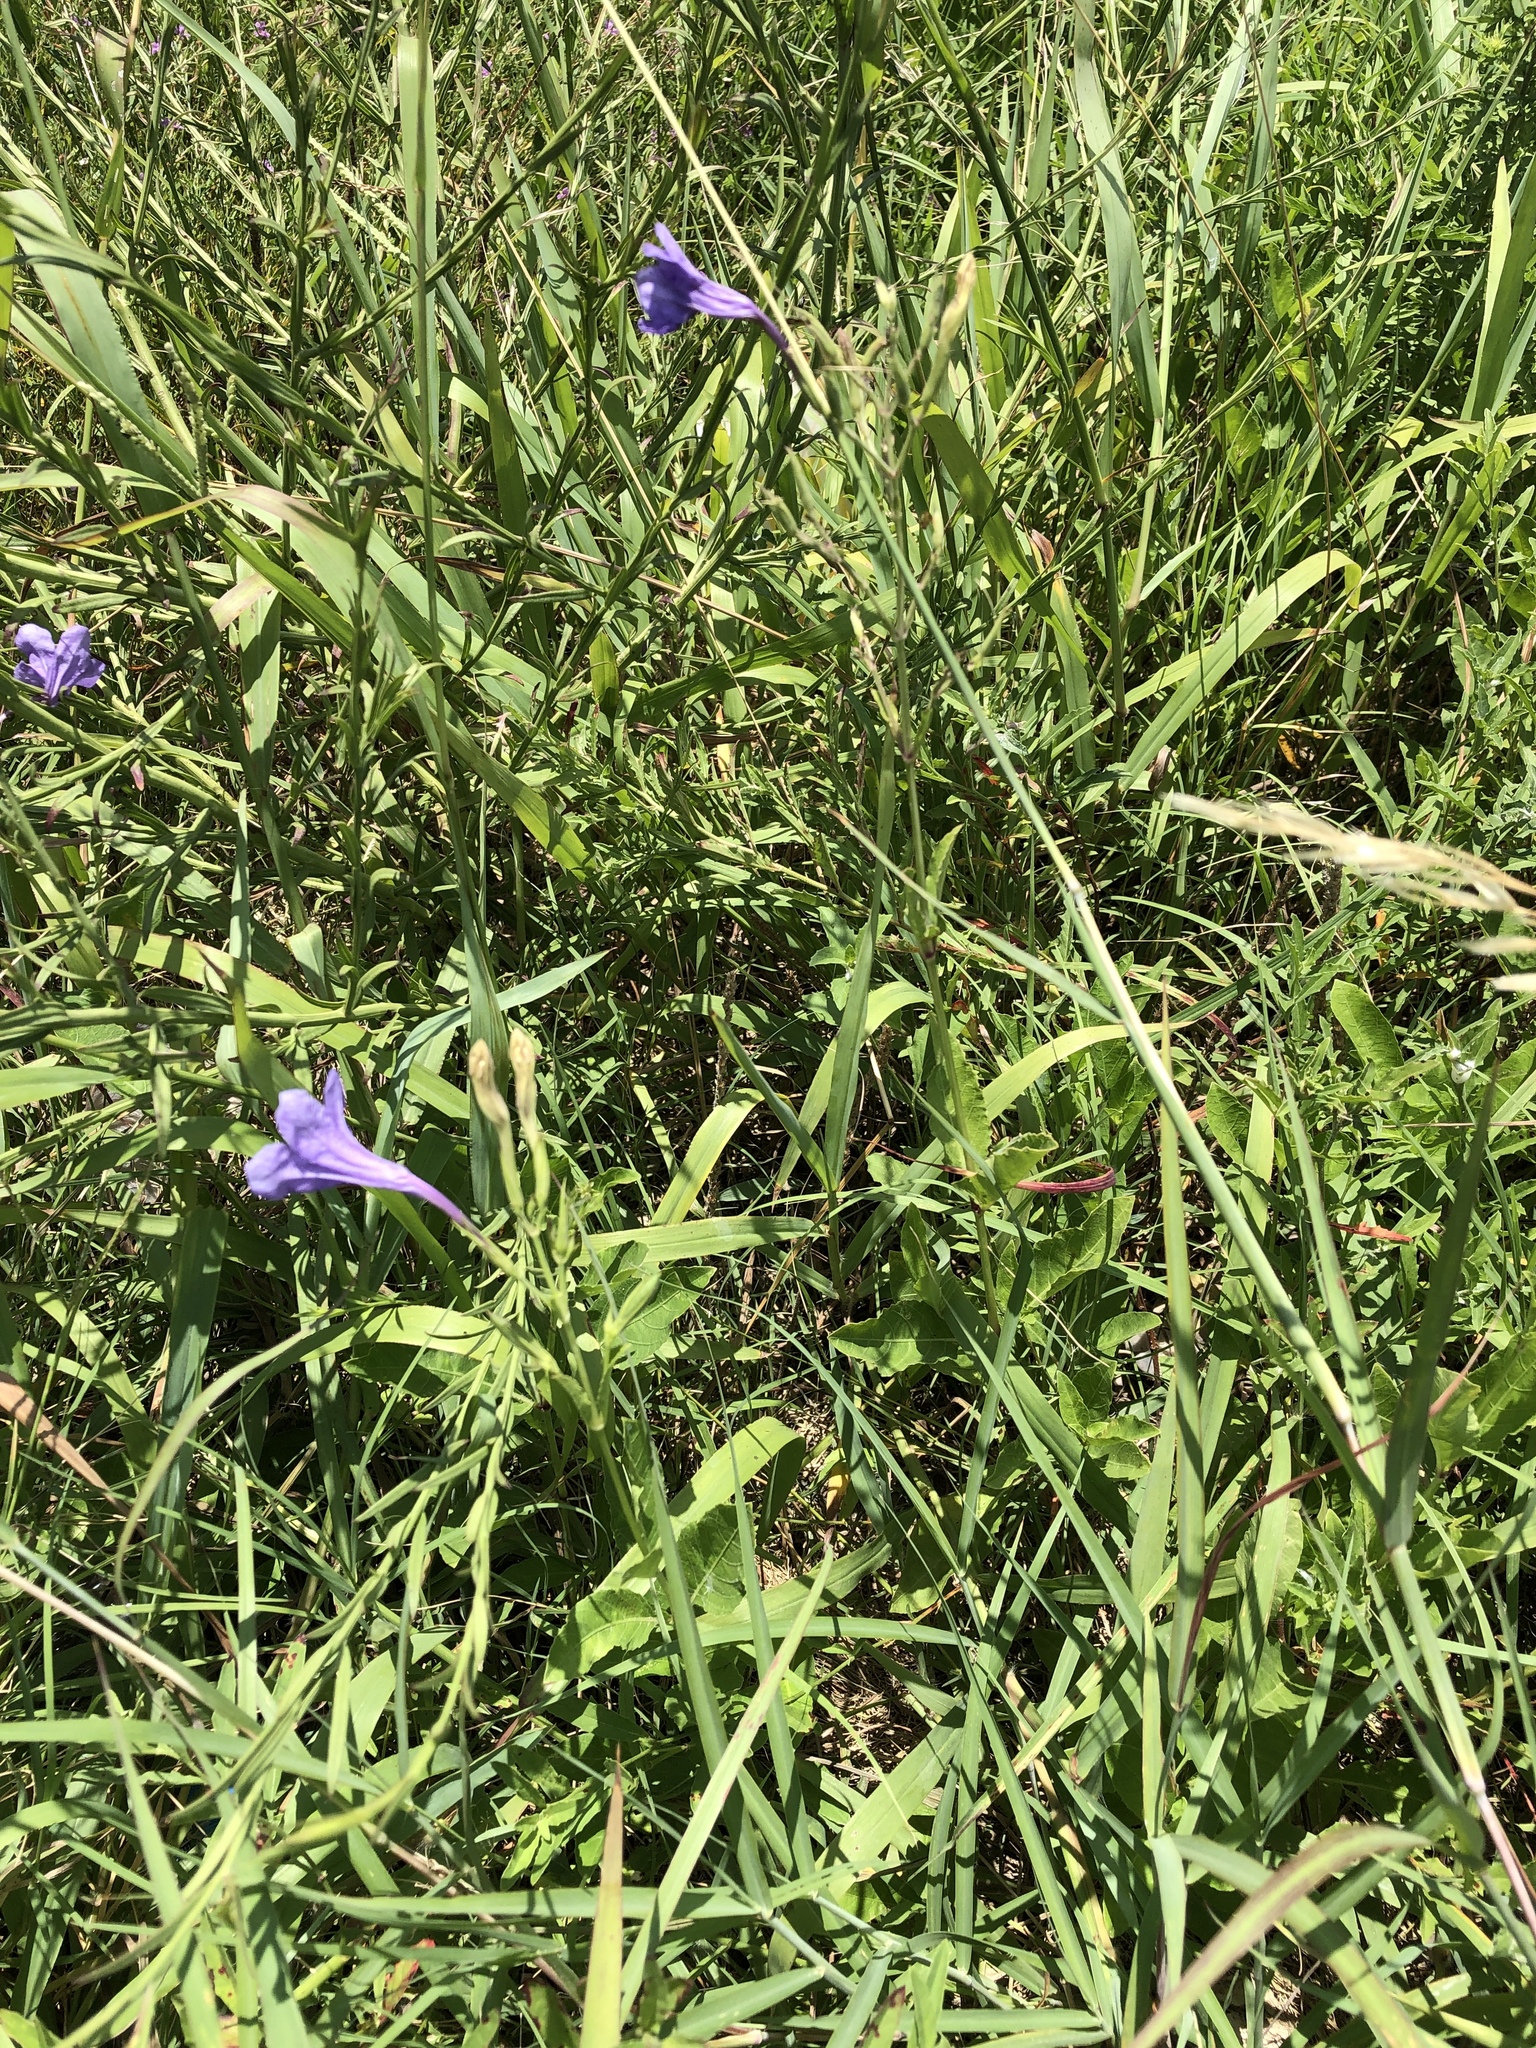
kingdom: Plantae
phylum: Tracheophyta
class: Magnoliopsida
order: Lamiales
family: Acanthaceae
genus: Ruellia
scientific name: Ruellia ciliatiflora
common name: Hairyflower wild petunia
